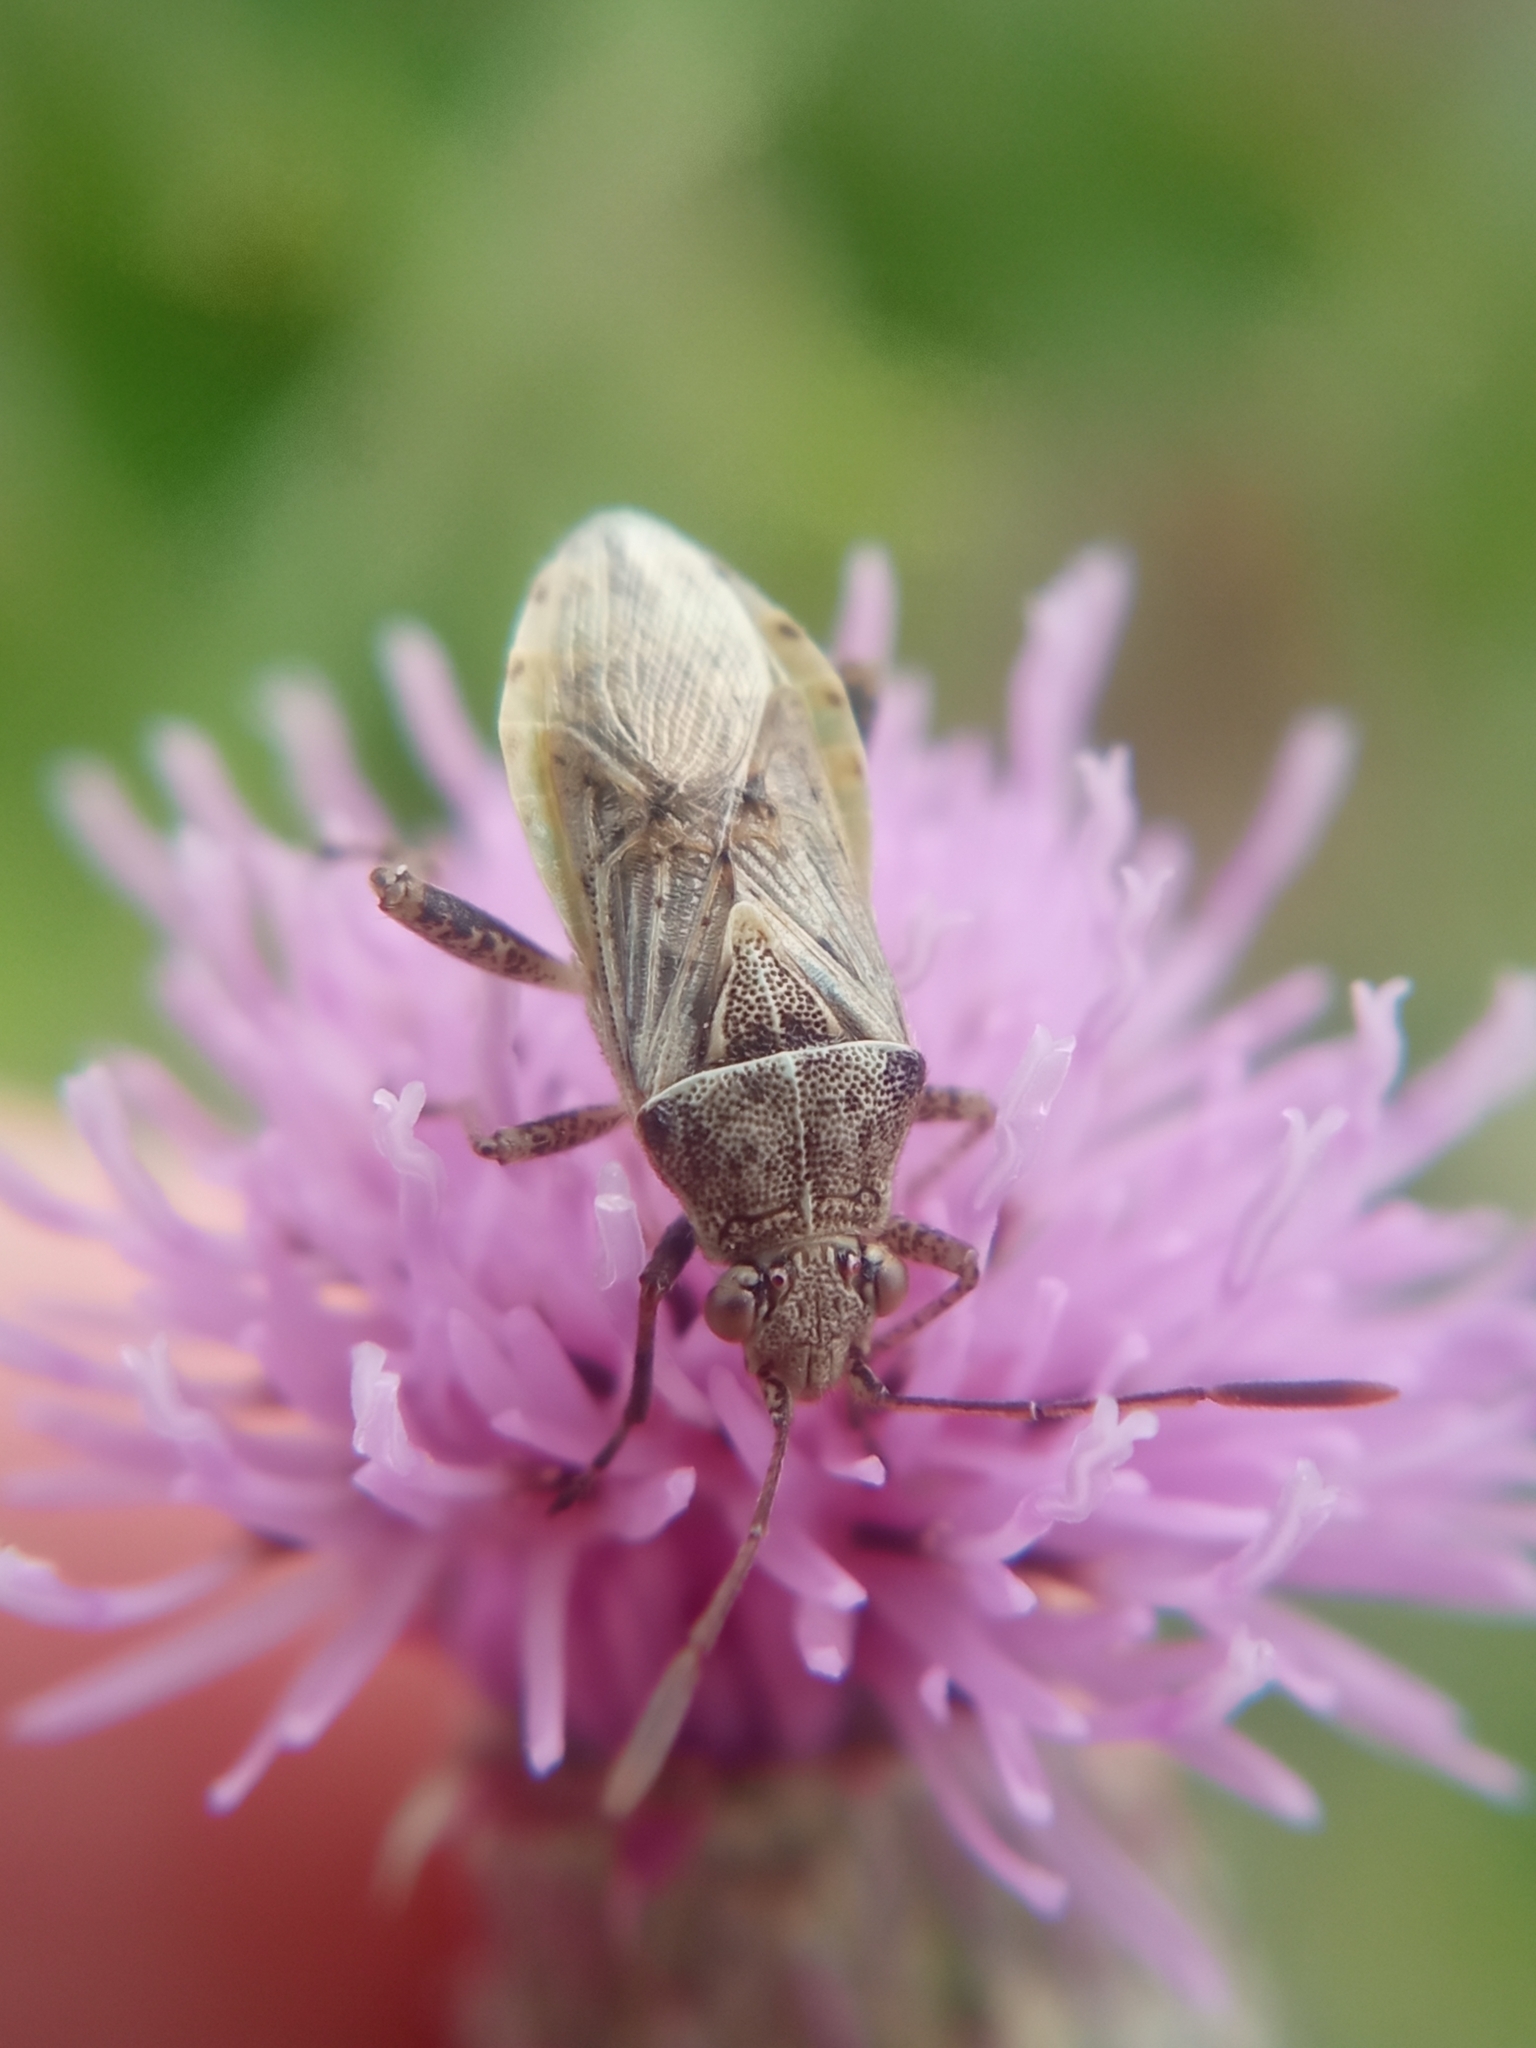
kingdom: Animalia
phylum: Arthropoda
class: Insecta
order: Hemiptera
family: Rhopalidae
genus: Stictopleurus
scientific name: Stictopleurus punctatonervosus
